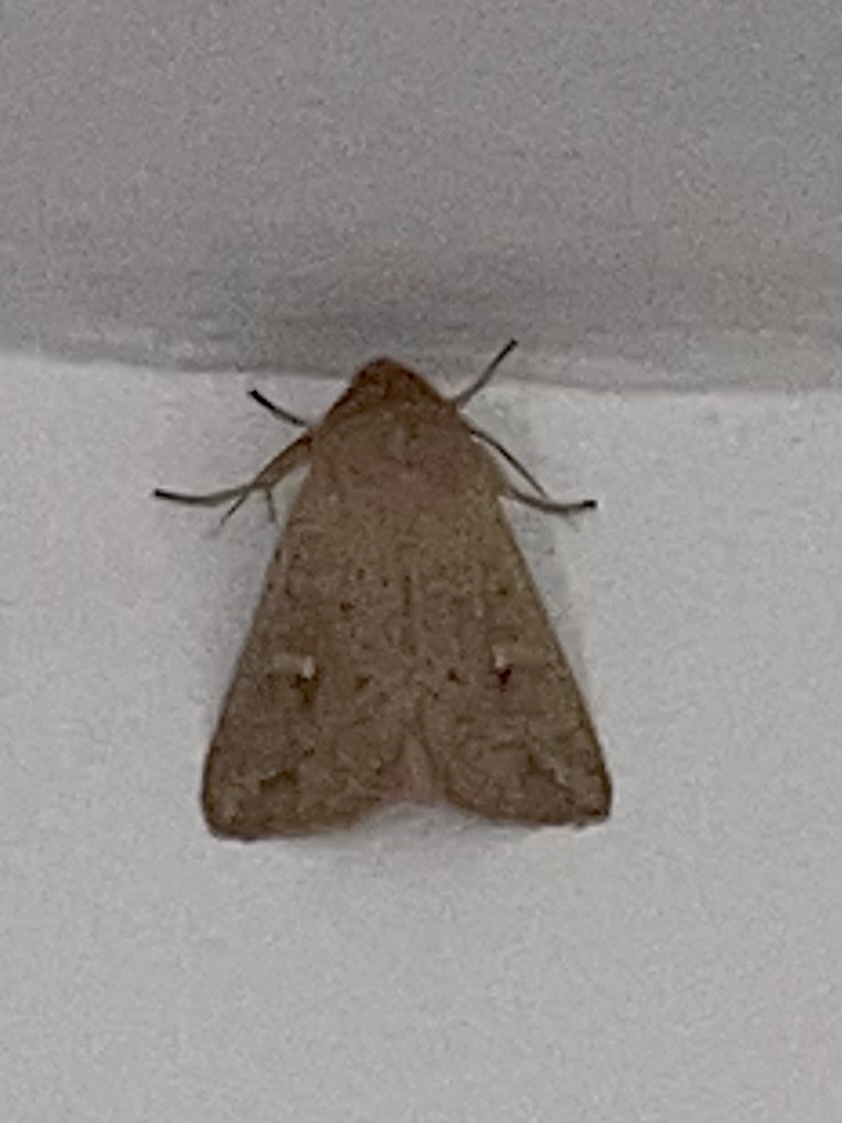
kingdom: Animalia
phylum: Arthropoda
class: Insecta
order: Lepidoptera
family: Noctuidae
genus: Mythimna
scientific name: Mythimna ferrago
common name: Clay
